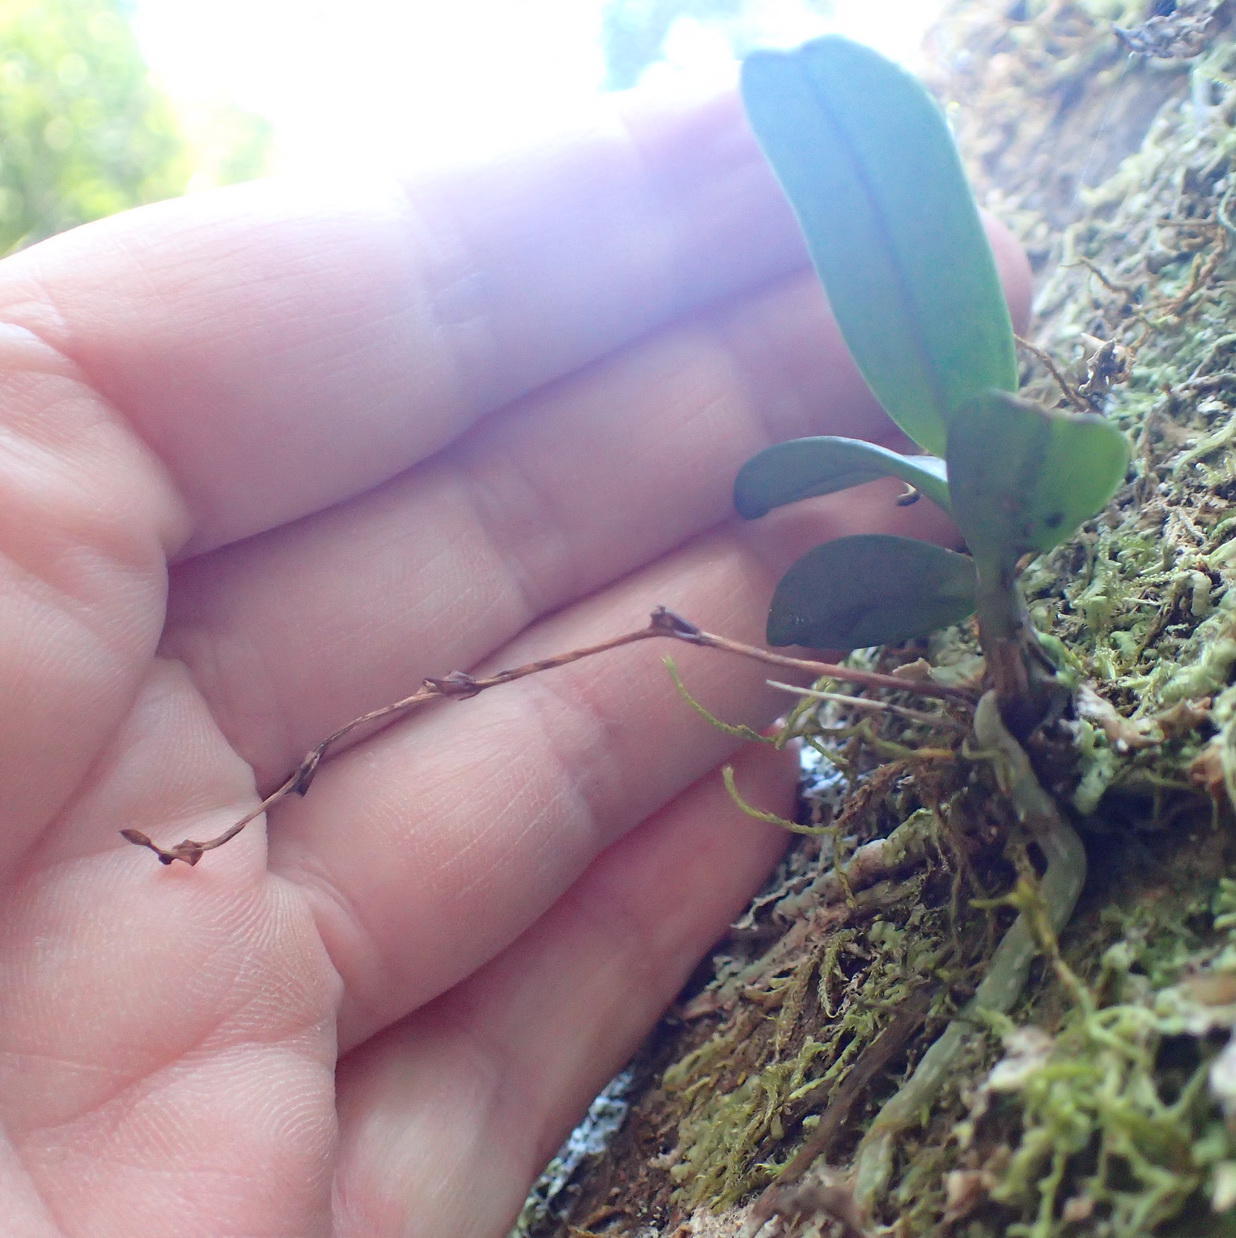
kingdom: Plantae
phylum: Tracheophyta
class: Liliopsida
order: Asparagales
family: Orchidaceae
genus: Angraecum
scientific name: Angraecum sacciferum
